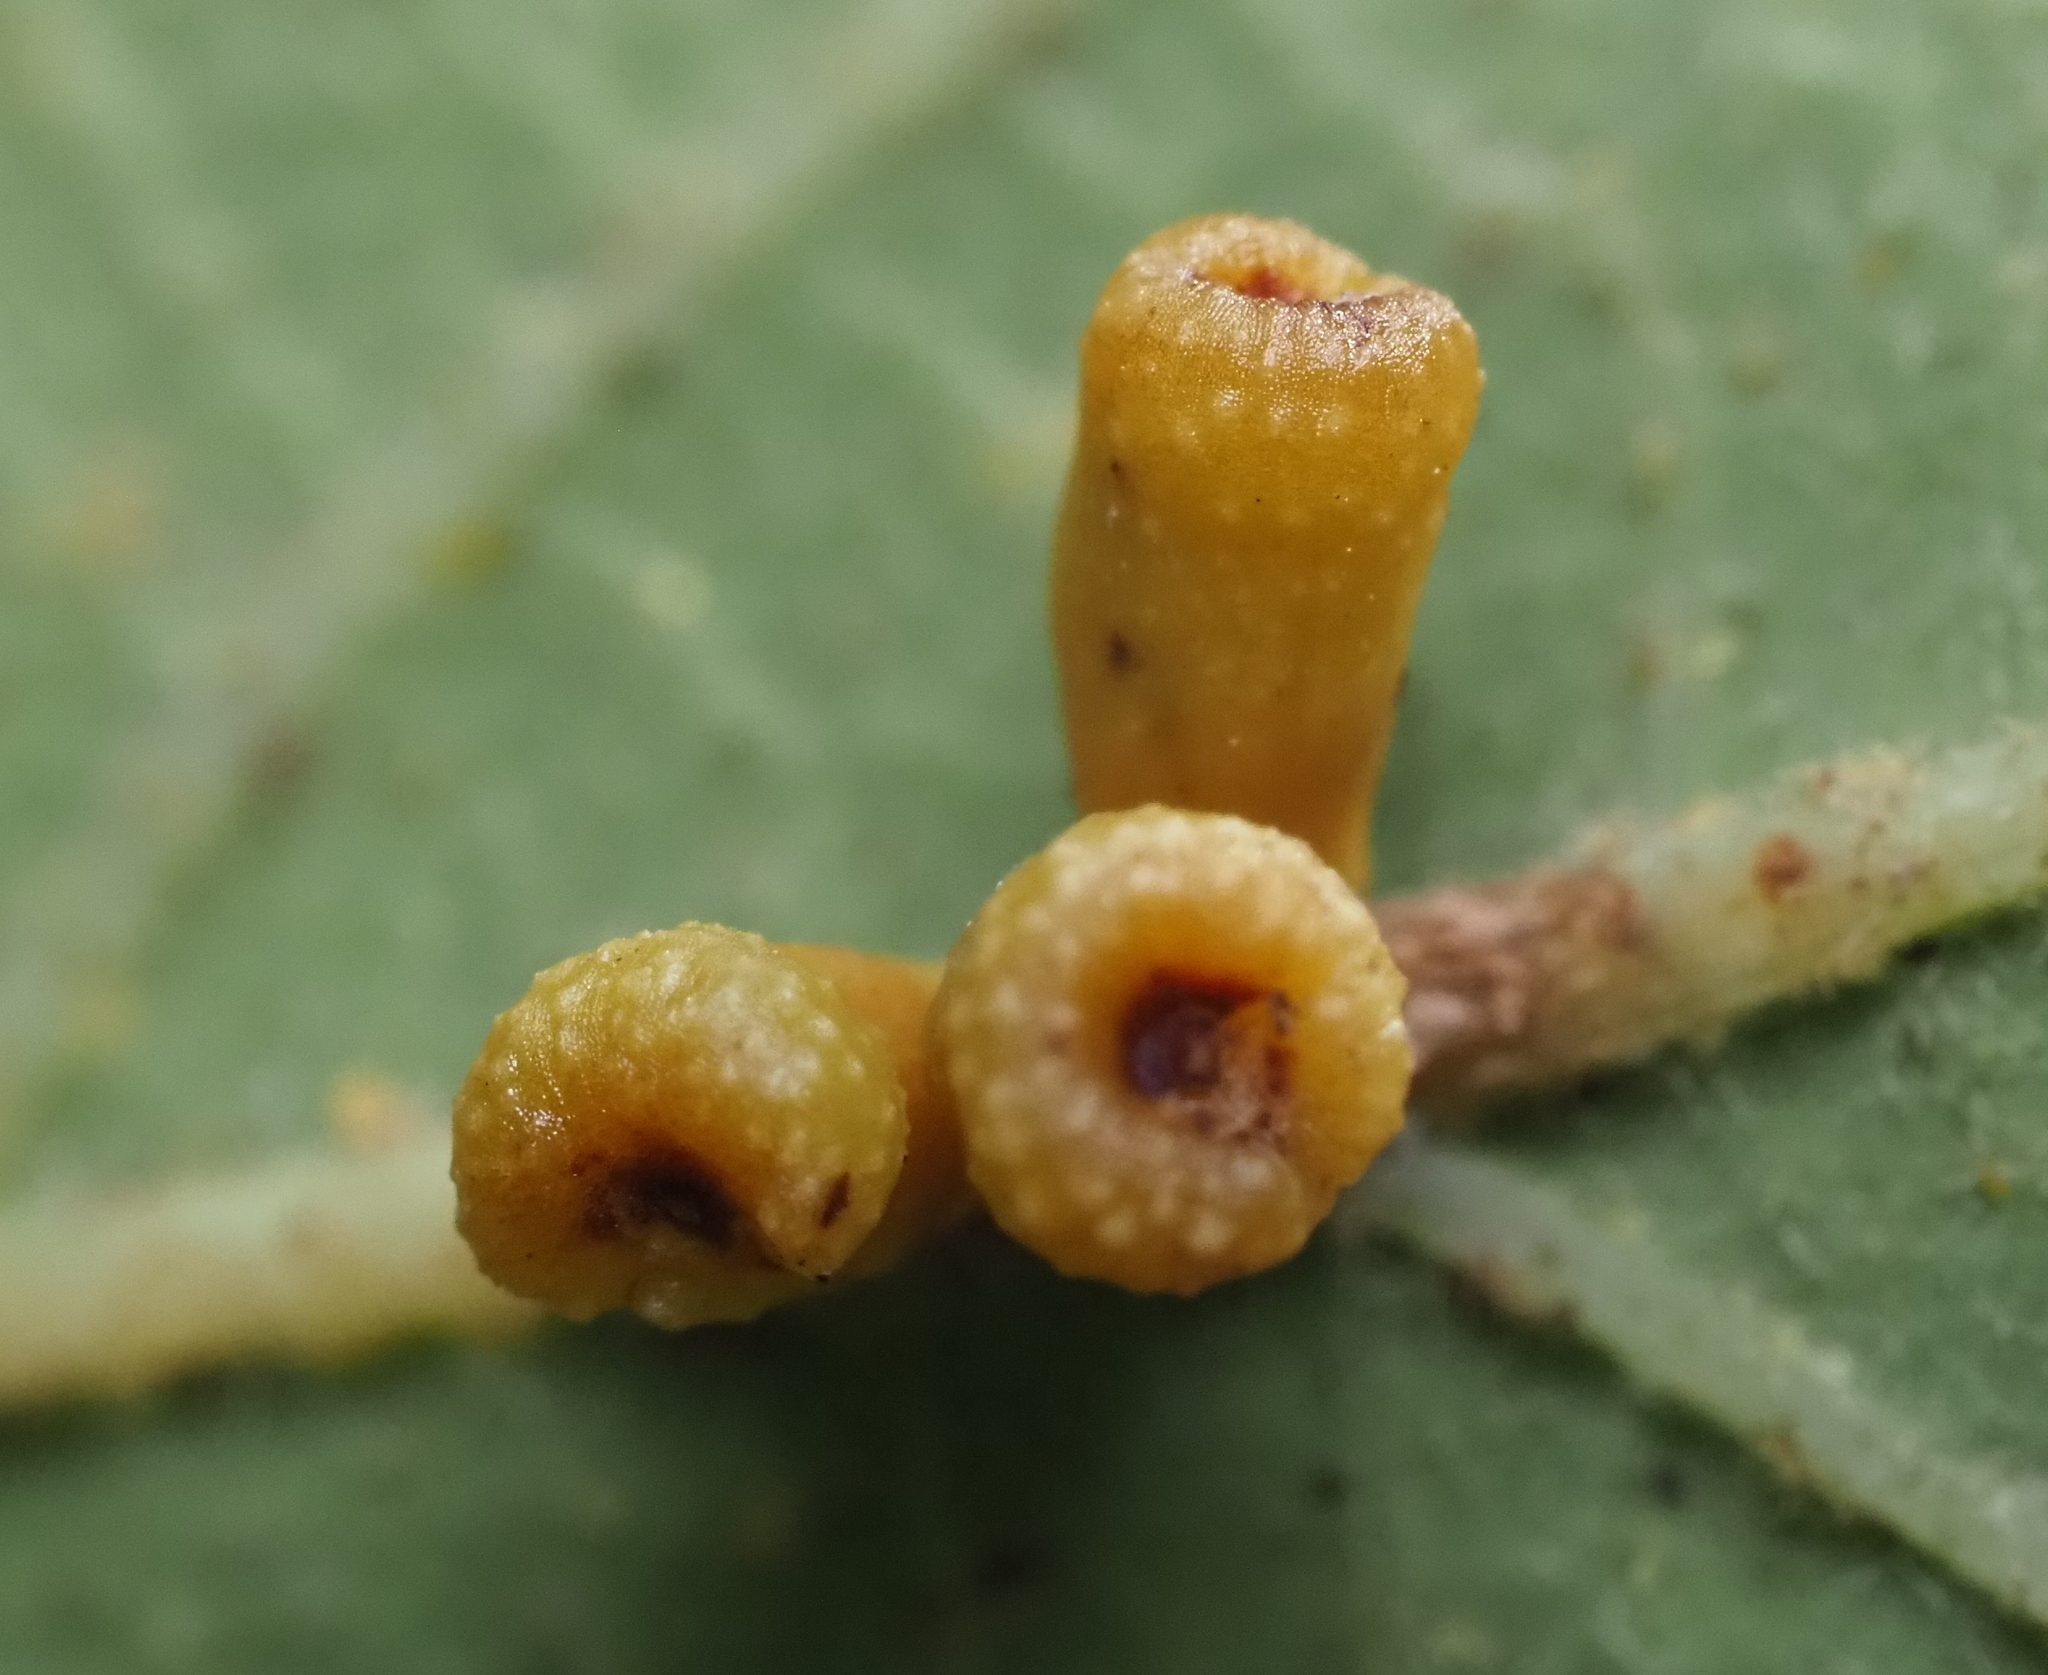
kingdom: Animalia
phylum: Arthropoda
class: Insecta
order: Hymenoptera
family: Cynipidae
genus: Andricus
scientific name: Andricus lustrans
